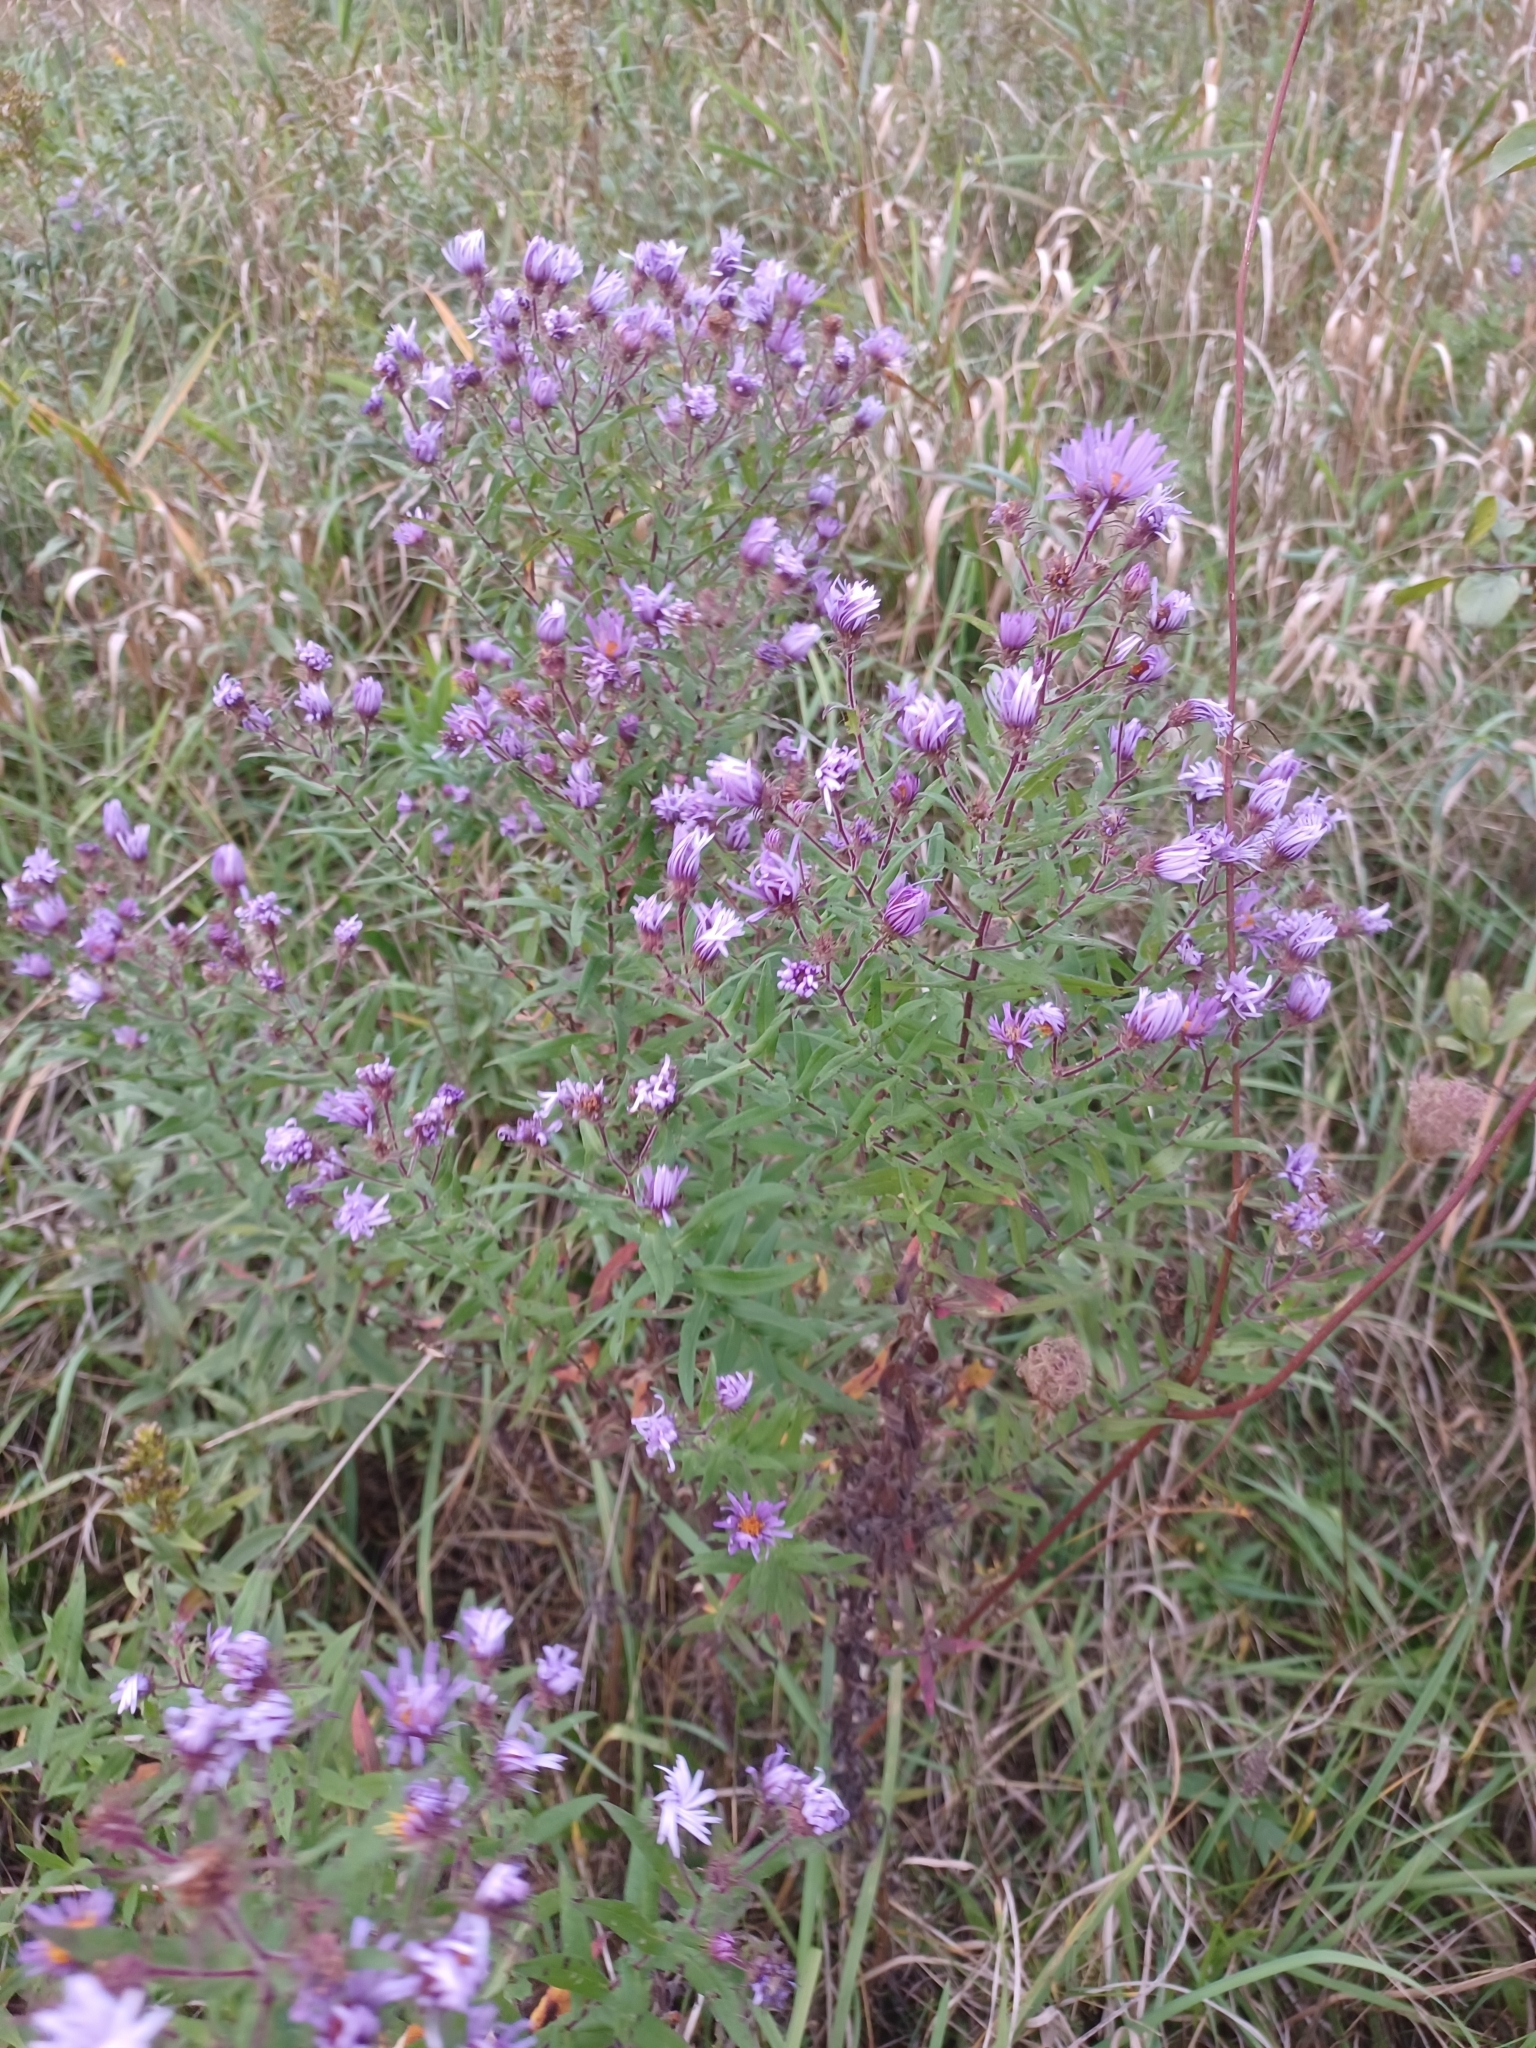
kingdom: Plantae
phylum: Tracheophyta
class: Magnoliopsida
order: Asterales
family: Asteraceae
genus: Symphyotrichum
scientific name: Symphyotrichum novae-angliae
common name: Michaelmas daisy
